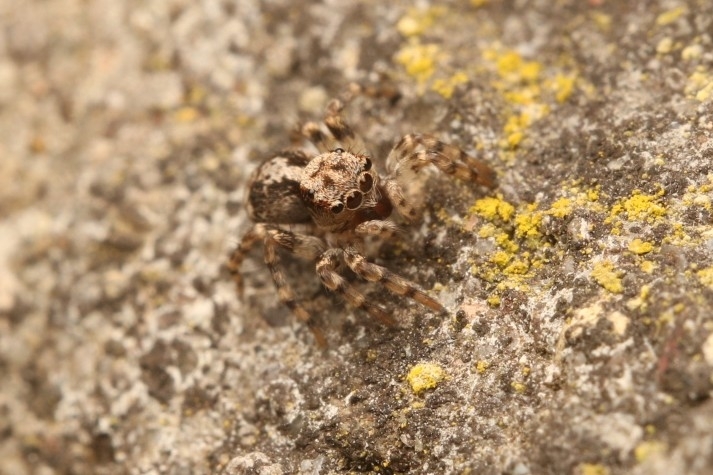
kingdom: Animalia
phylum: Arthropoda
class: Arachnida
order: Araneae
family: Salticidae
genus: Naphrys
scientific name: Naphrys pulex
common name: Flea jumping spider
